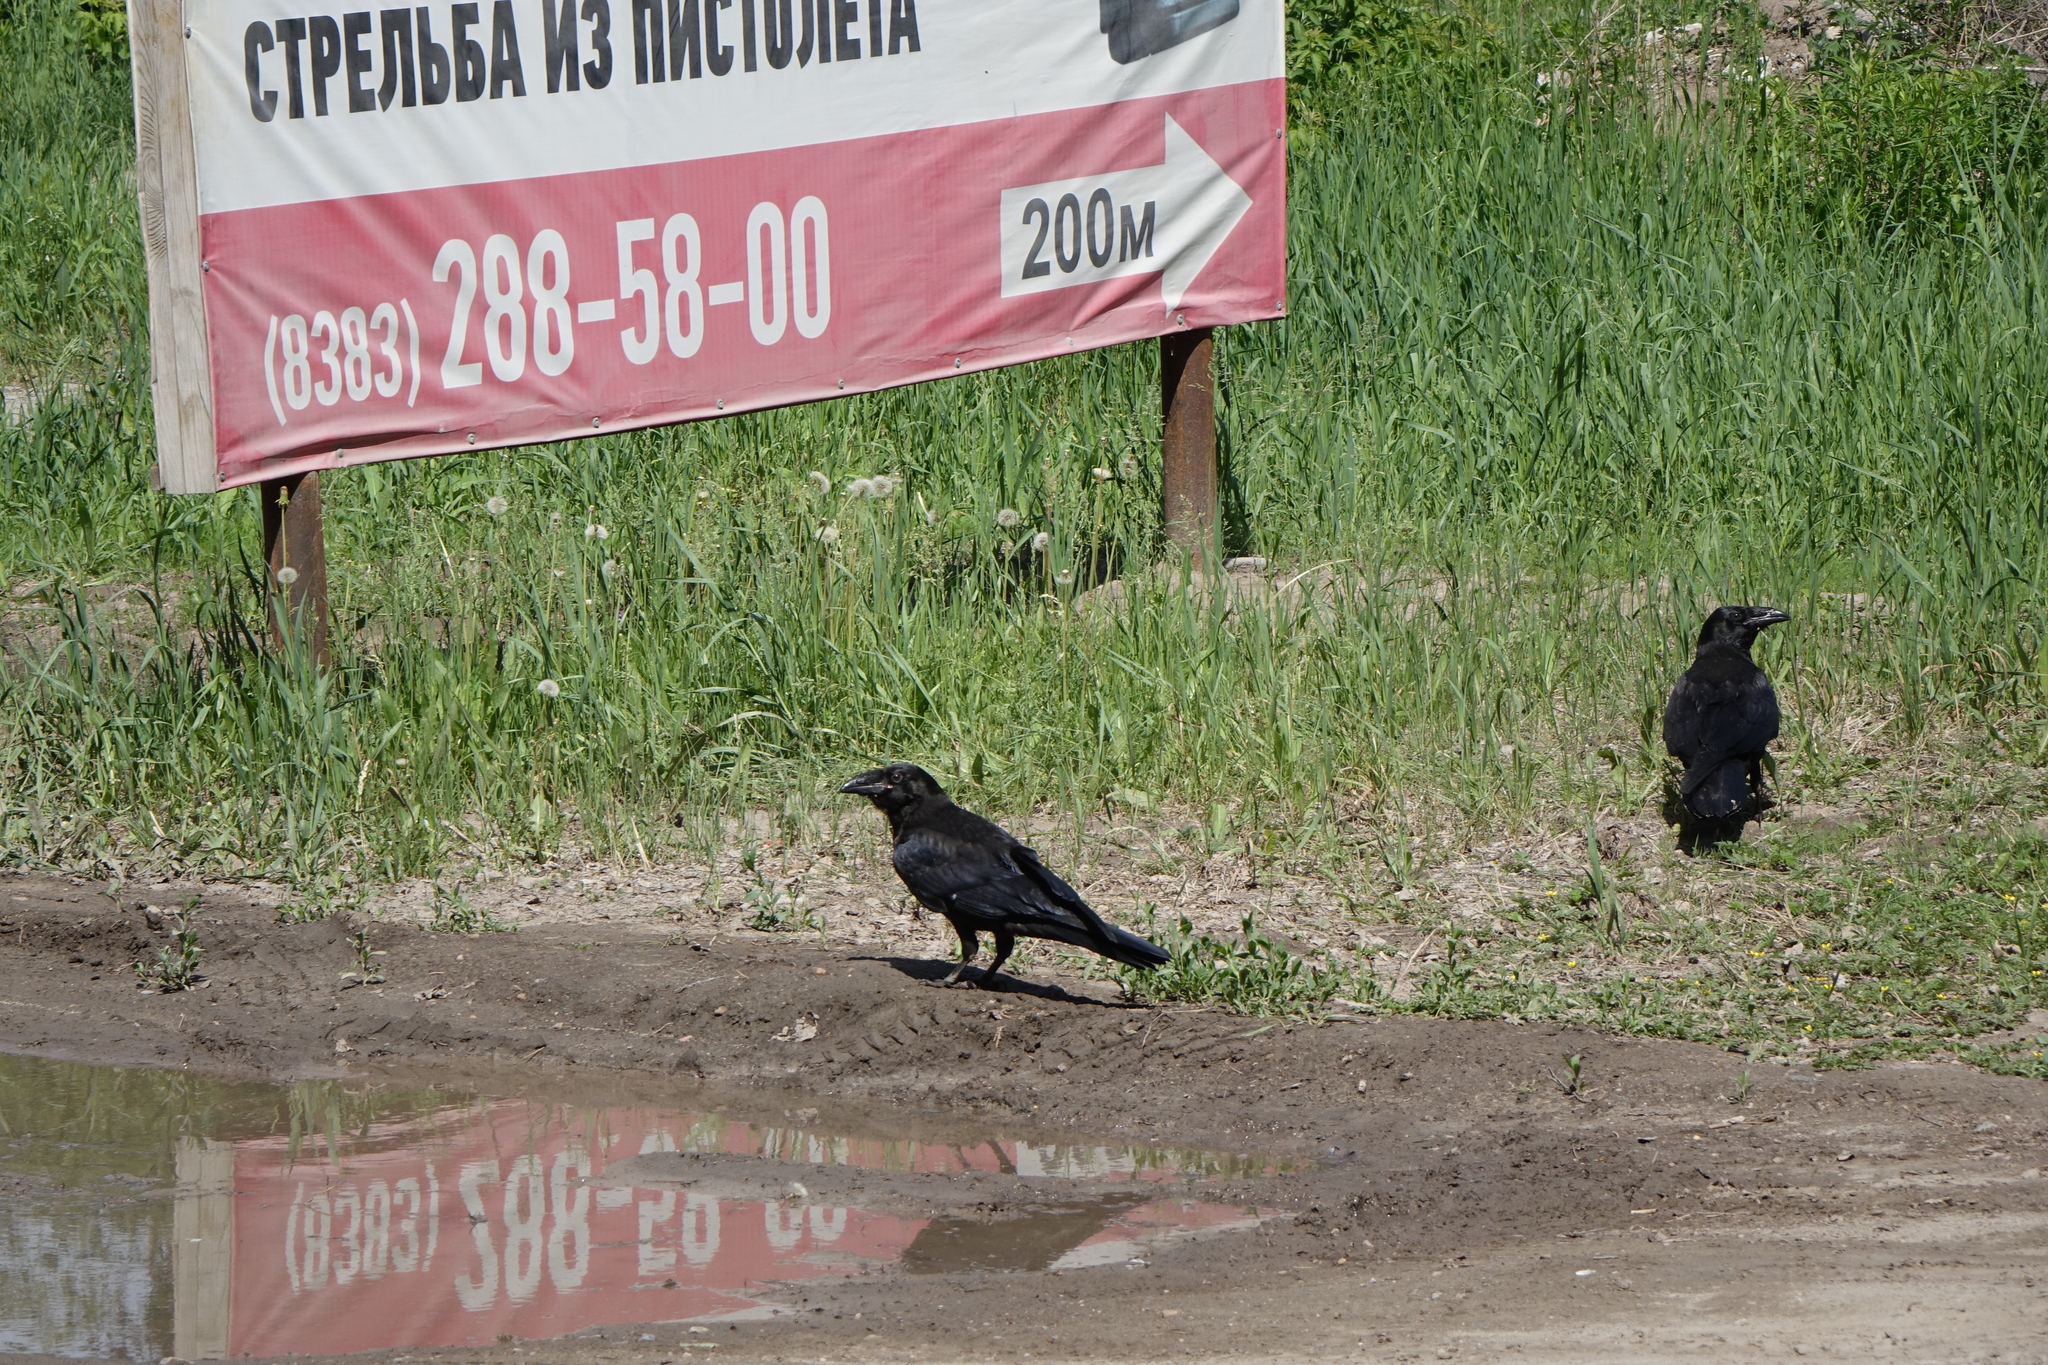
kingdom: Animalia
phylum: Chordata
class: Aves
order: Passeriformes
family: Corvidae
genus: Corvus
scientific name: Corvus corax
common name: Common raven
